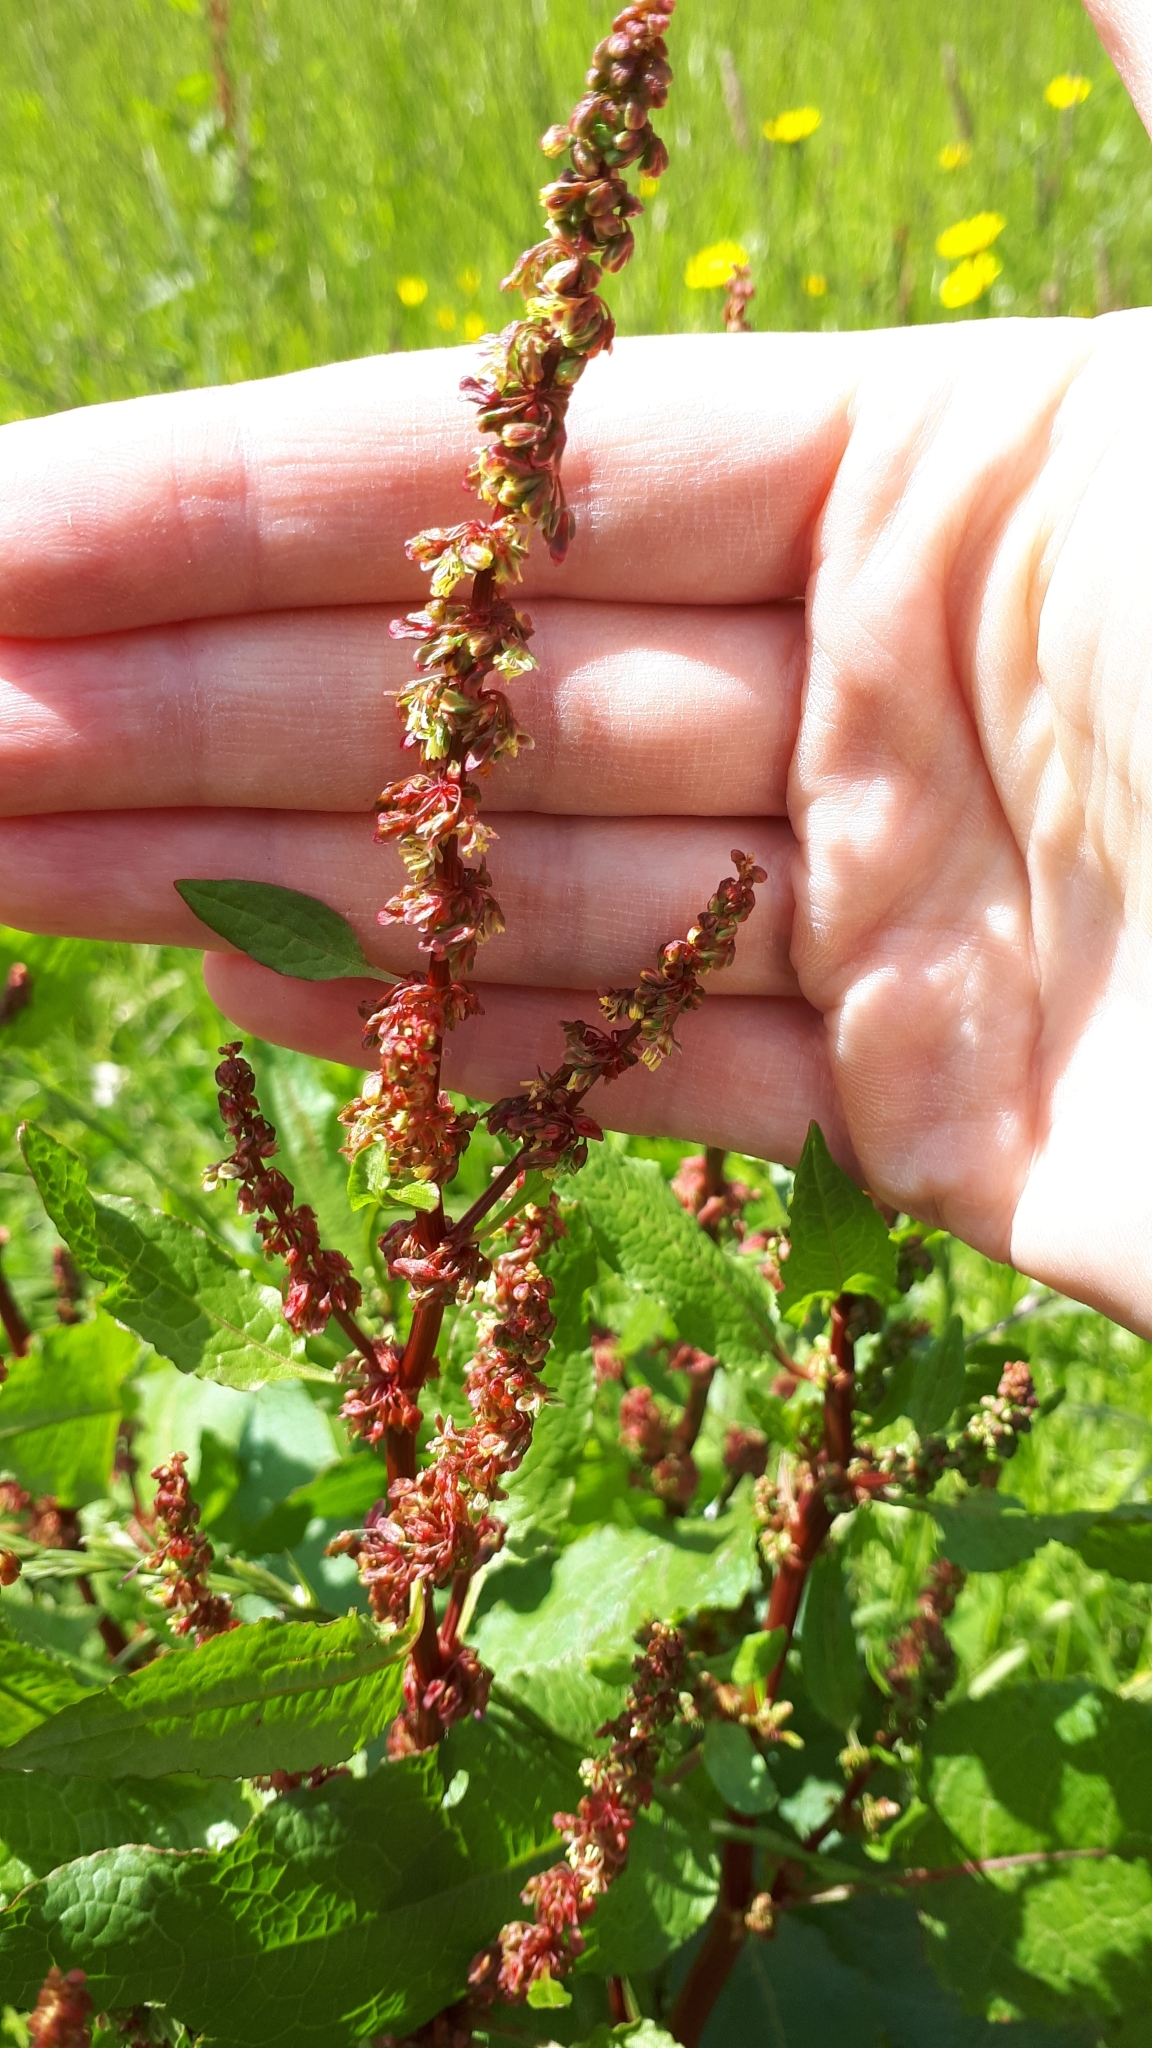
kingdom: Plantae
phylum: Tracheophyta
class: Magnoliopsida
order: Caryophyllales
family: Polygonaceae
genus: Rumex
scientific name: Rumex obtusifolius
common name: Bitter dock
